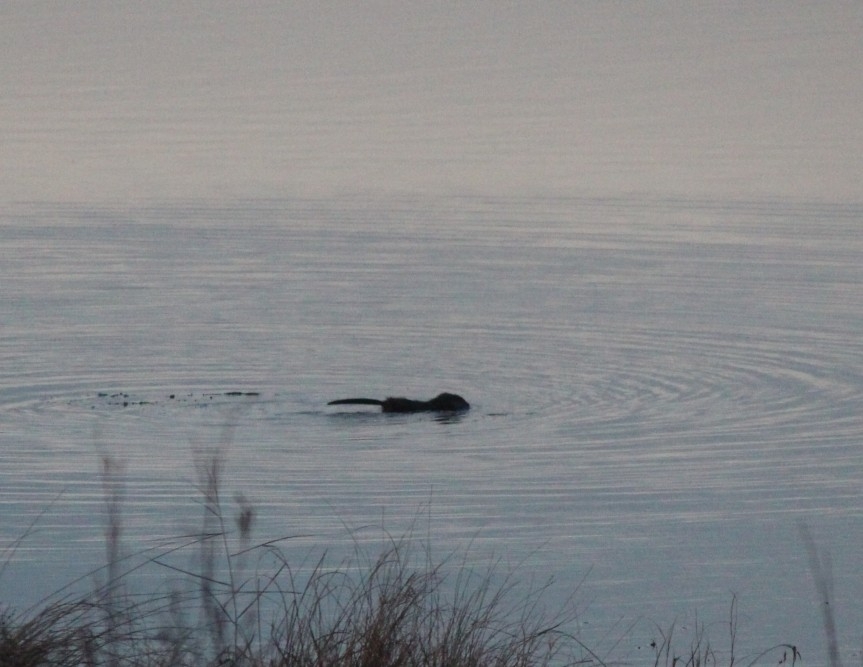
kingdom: Animalia
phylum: Chordata
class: Mammalia
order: Rodentia
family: Cricetidae
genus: Ondatra
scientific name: Ondatra zibethicus
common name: Muskrat
